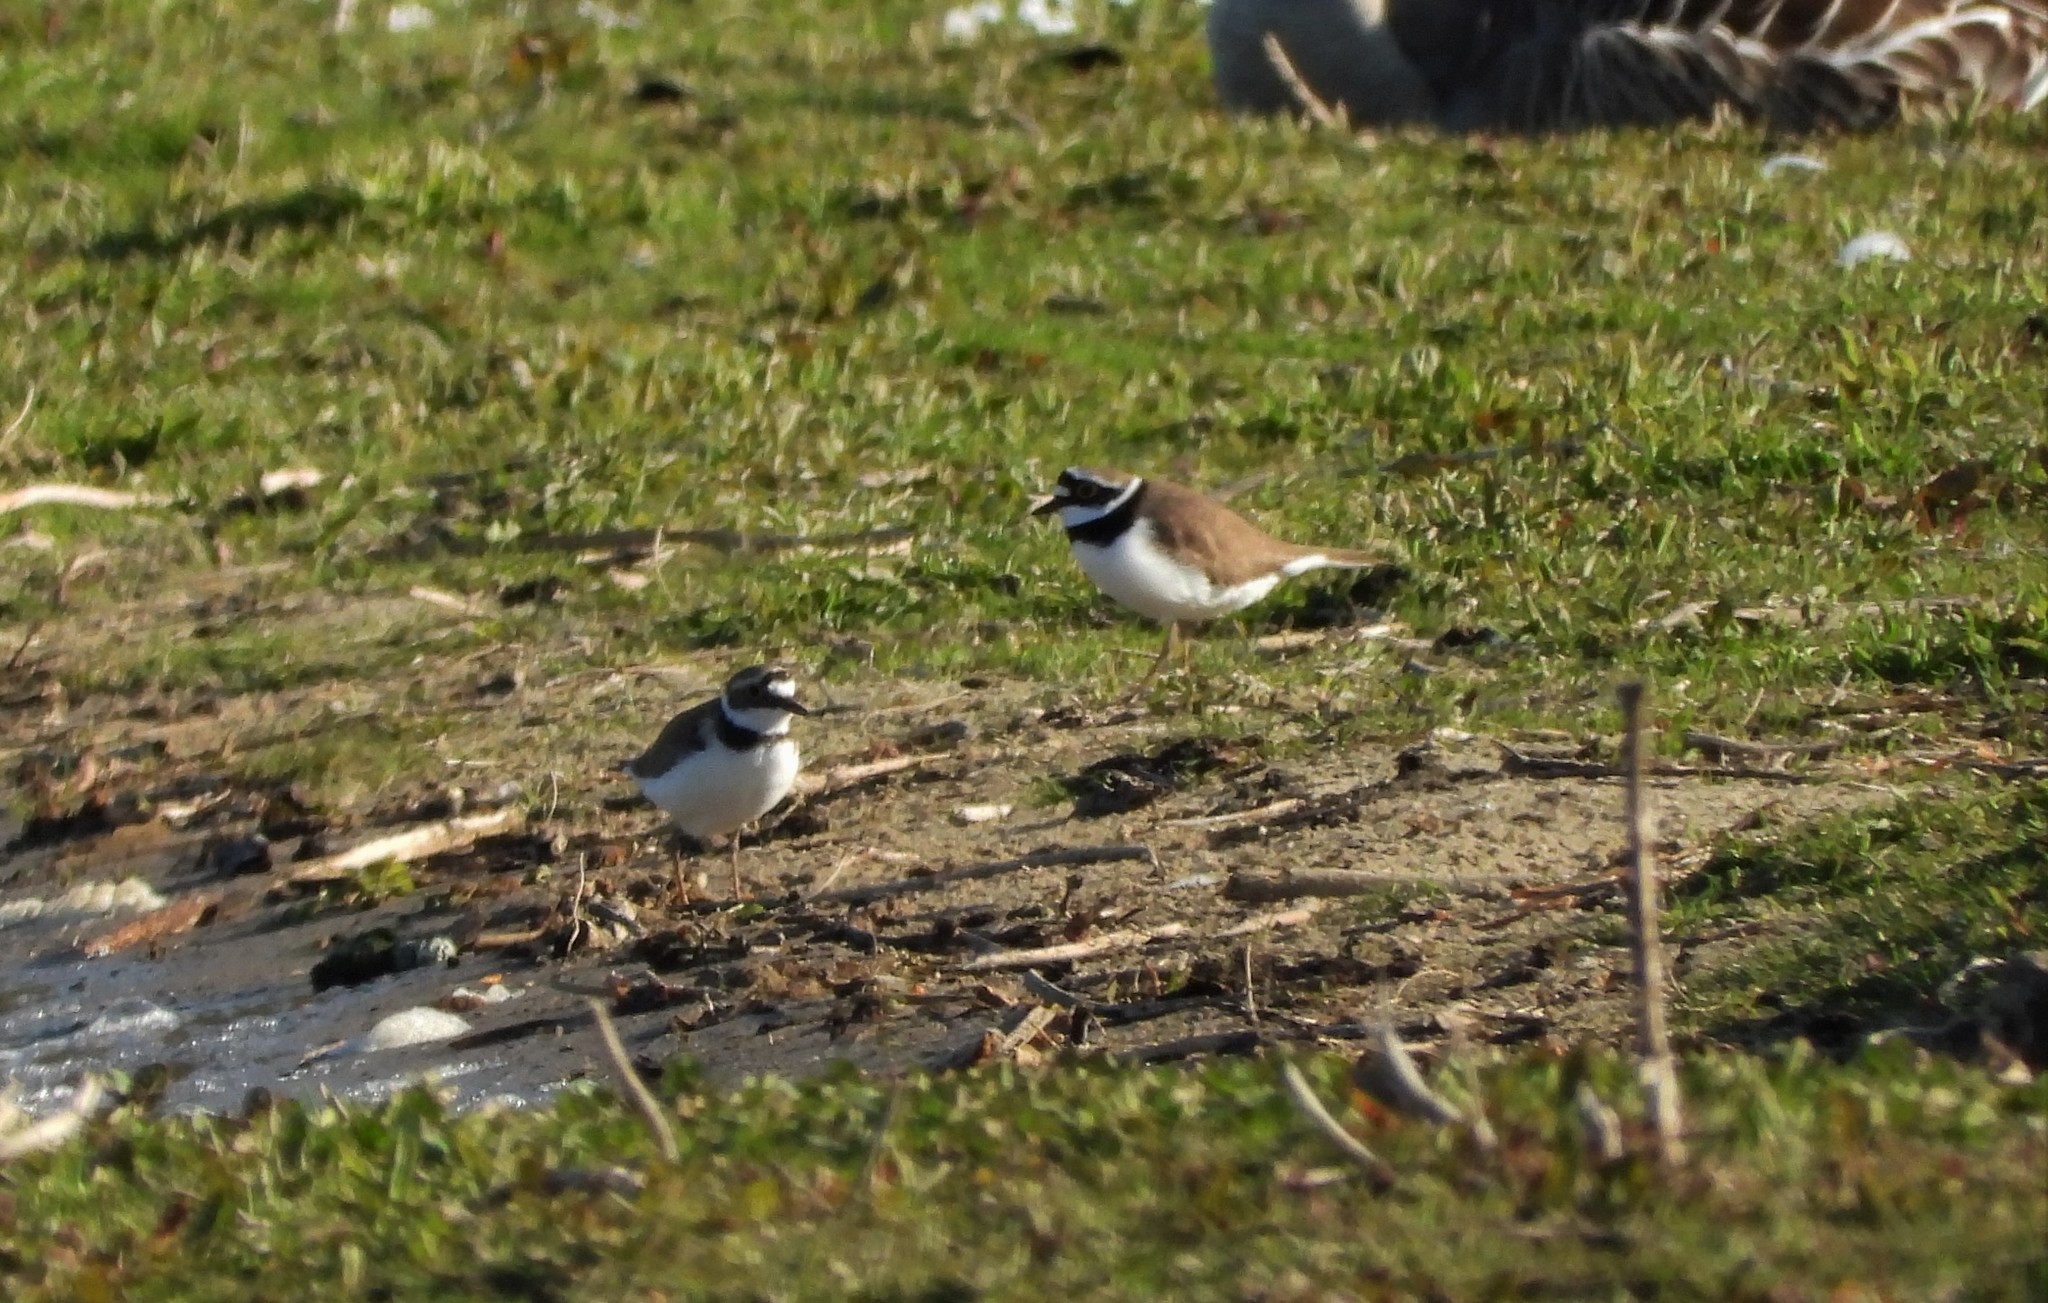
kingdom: Animalia
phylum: Chordata
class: Aves
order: Charadriiformes
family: Charadriidae
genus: Charadrius
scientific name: Charadrius dubius
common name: Little ringed plover
